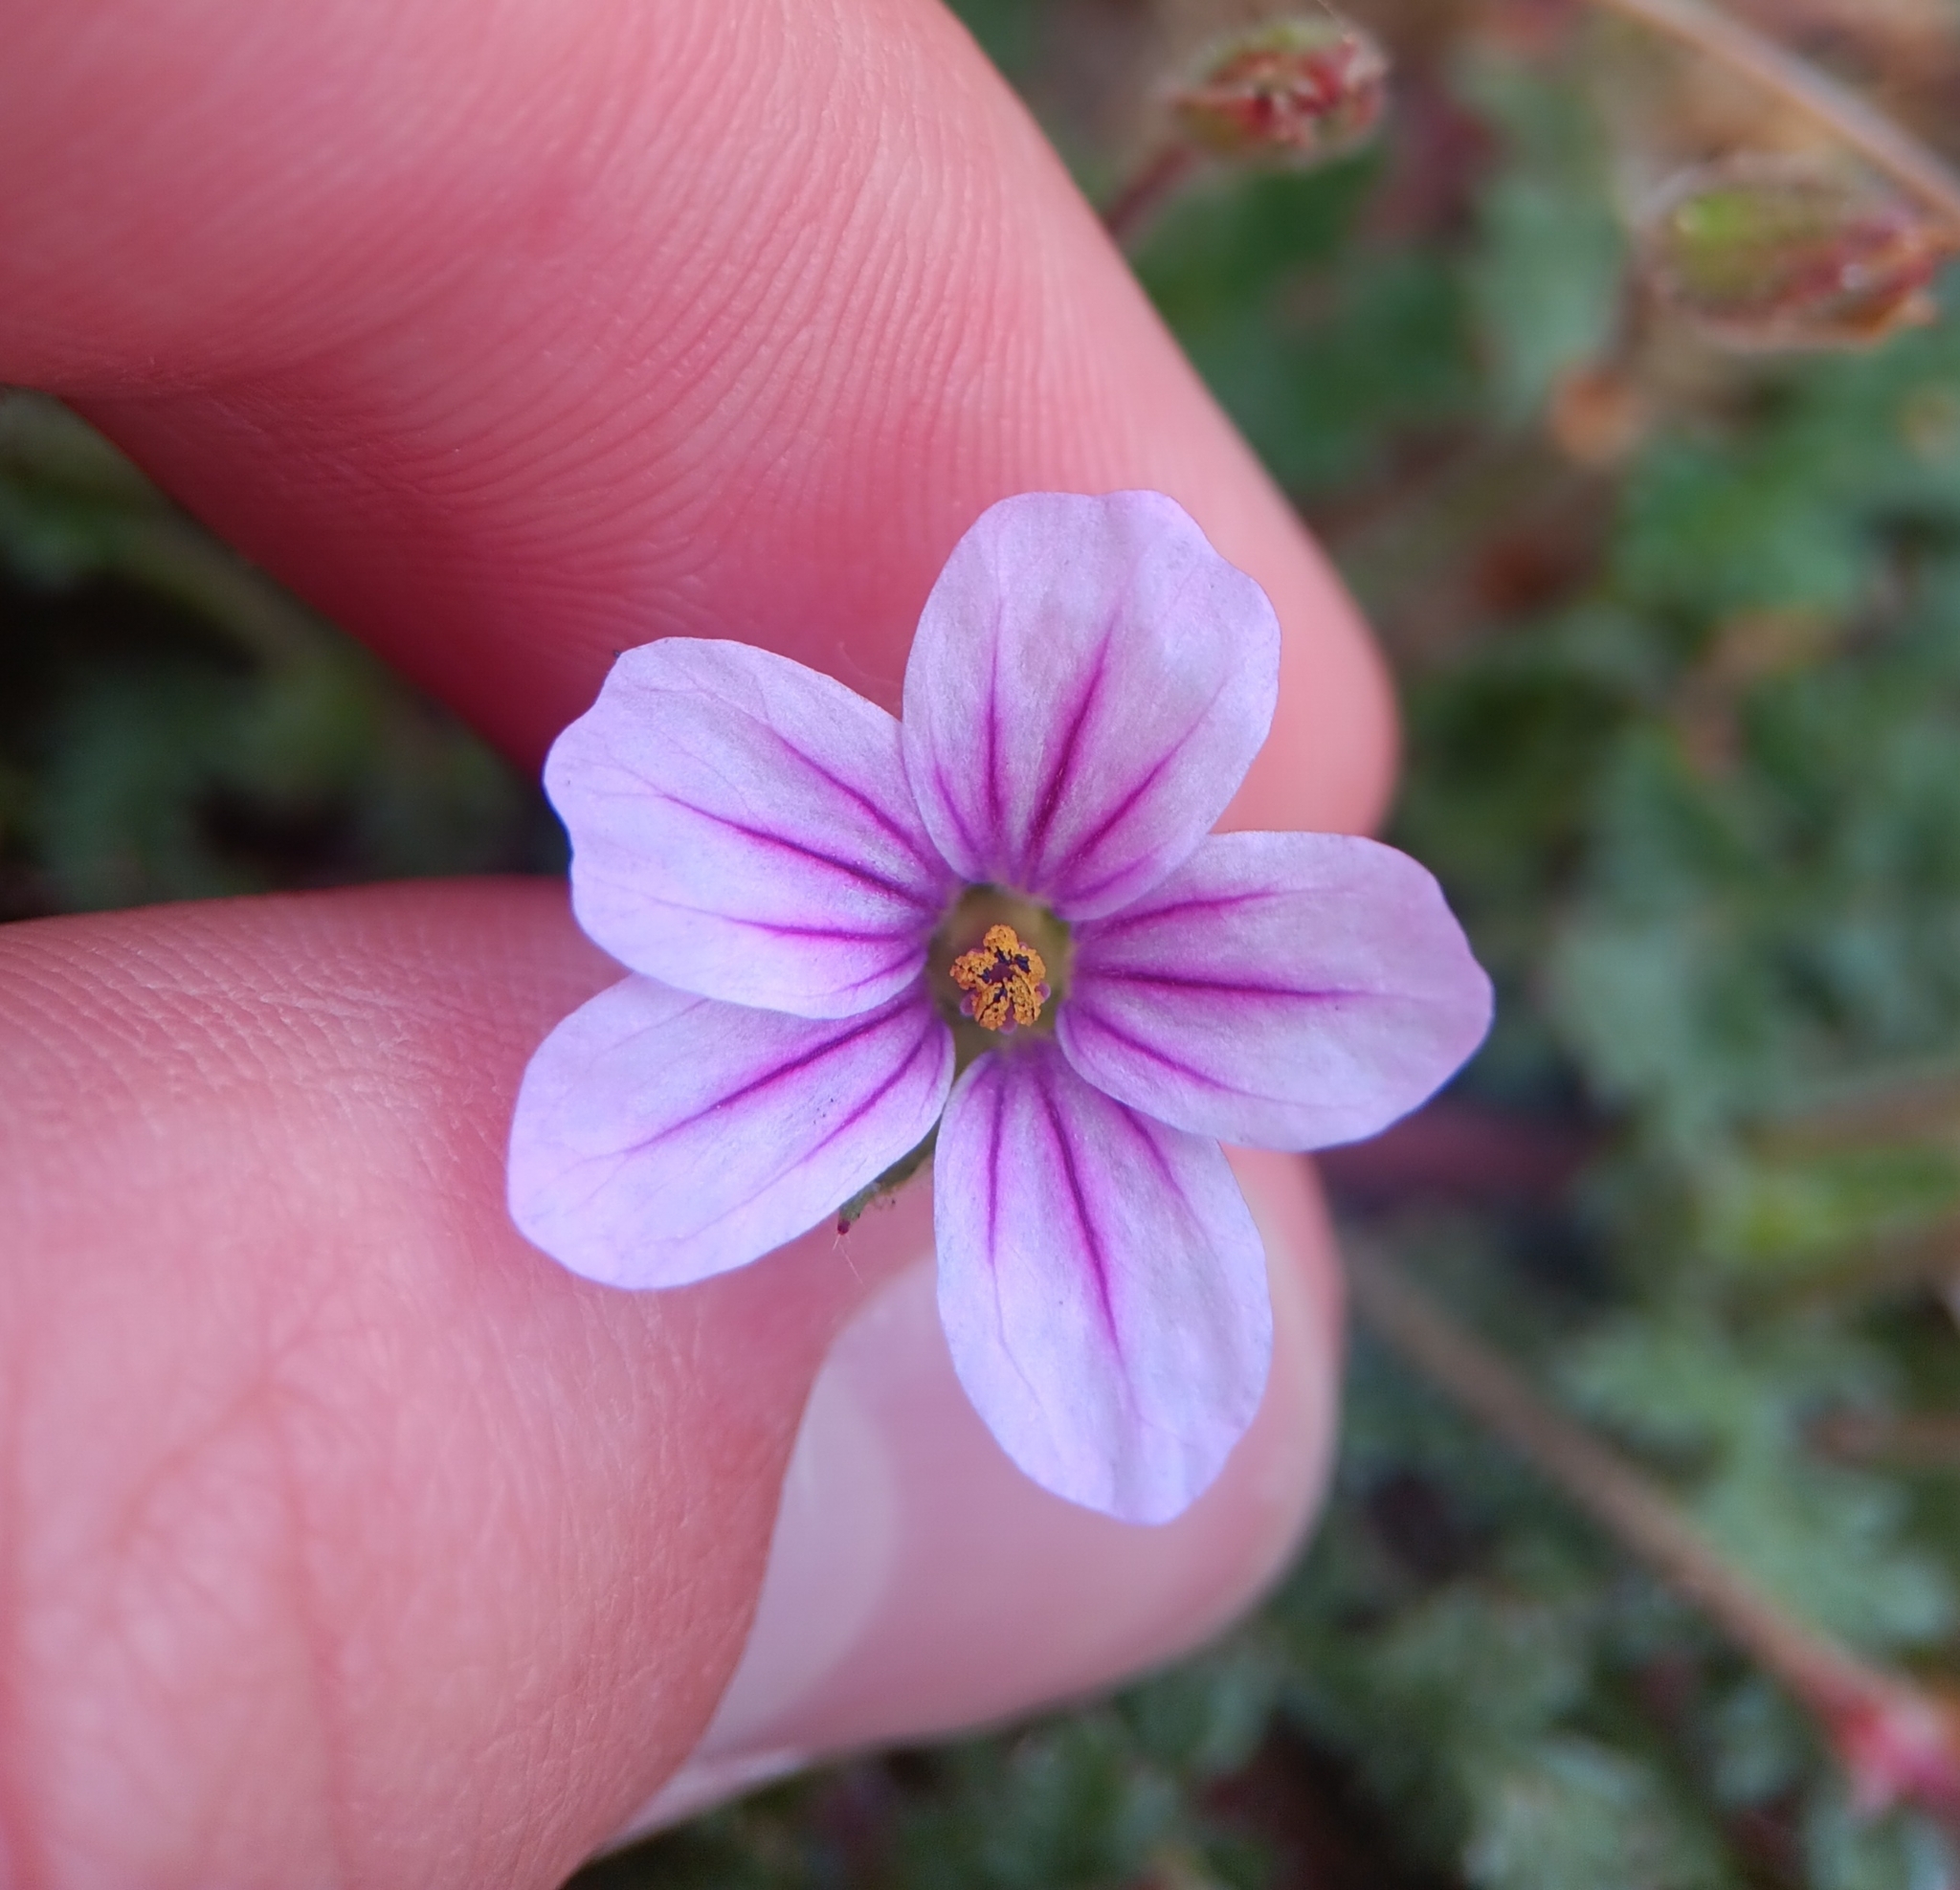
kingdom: Plantae
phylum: Tracheophyta
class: Magnoliopsida
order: Geraniales
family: Geraniaceae
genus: Erodium
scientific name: Erodium botrys
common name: Mediterranean stork's-bill
